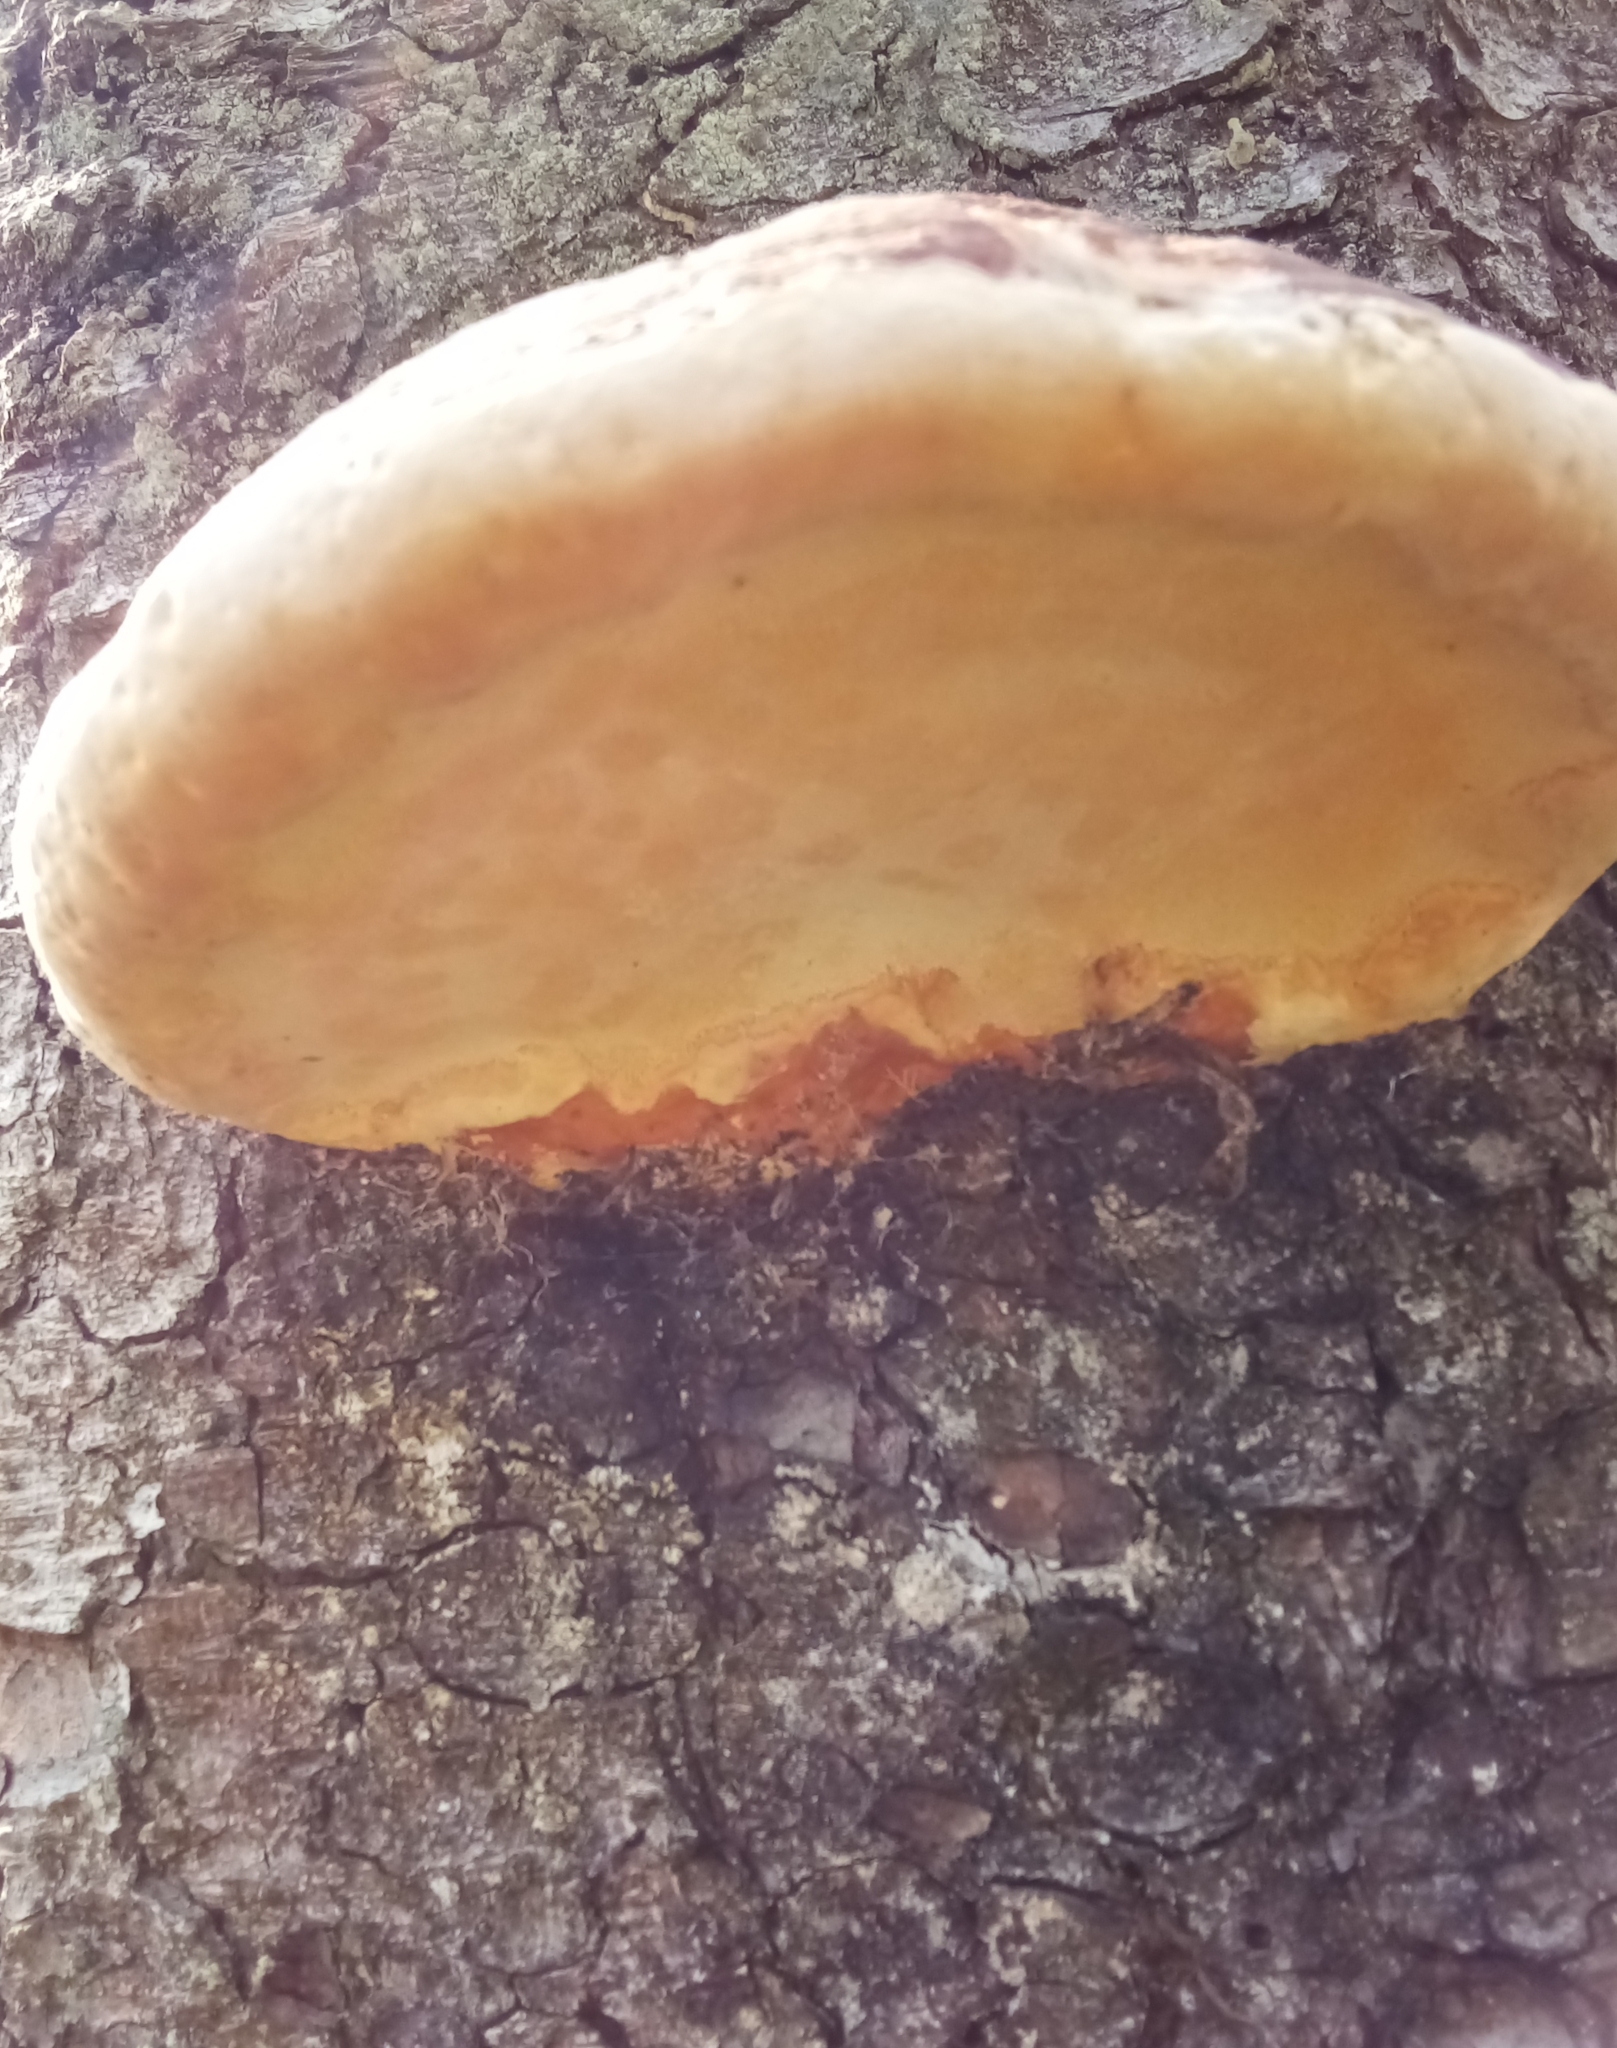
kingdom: Fungi
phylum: Basidiomycota
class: Agaricomycetes
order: Polyporales
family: Fomitopsidaceae
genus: Fomitopsis
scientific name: Fomitopsis pinicola
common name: Red-belted bracket
